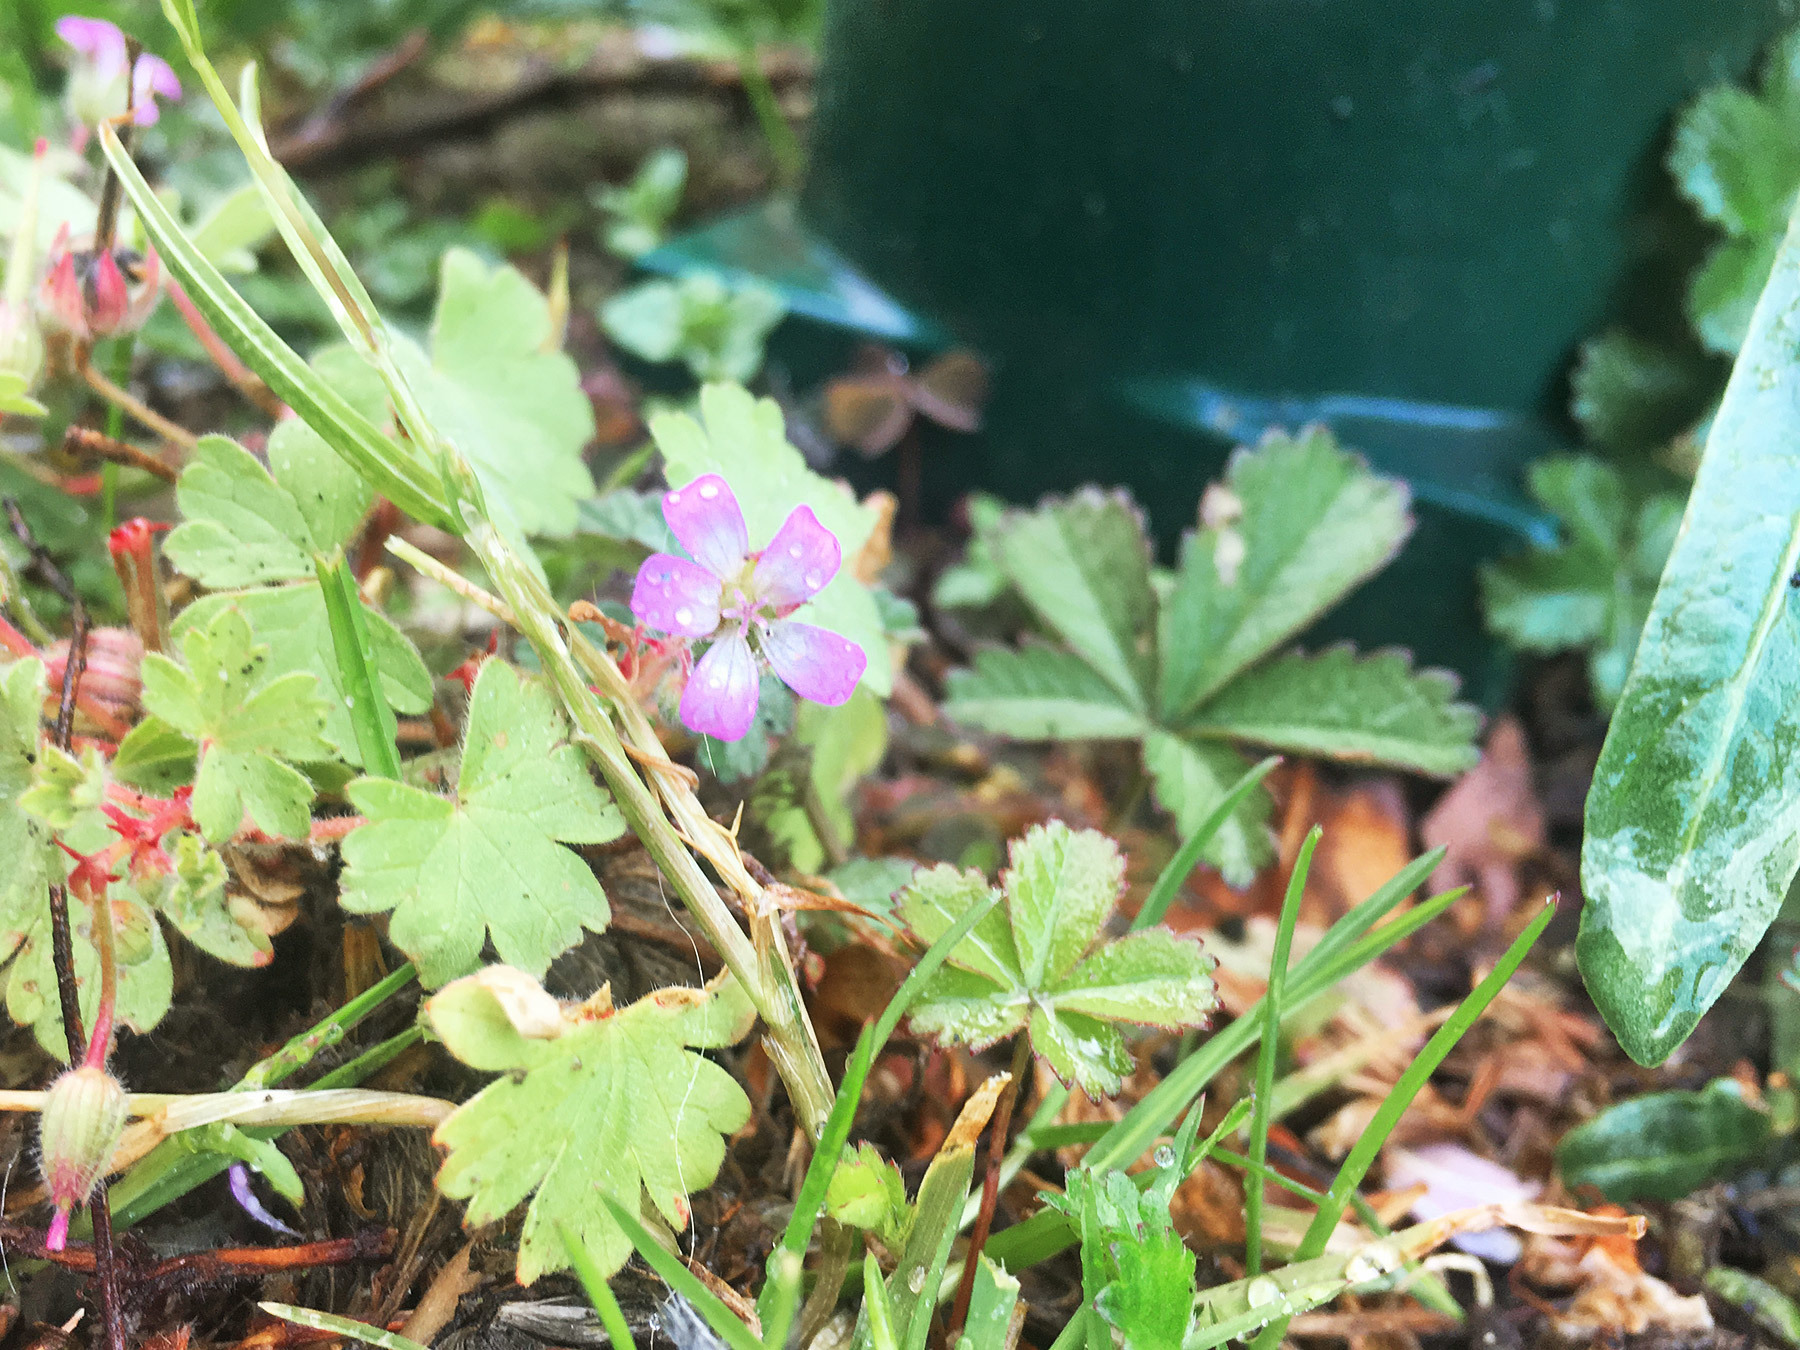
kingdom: Plantae
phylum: Tracheophyta
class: Magnoliopsida
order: Geraniales
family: Geraniaceae
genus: Geranium
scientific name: Geranium rotundifolium
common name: Round-leaved crane's-bill
